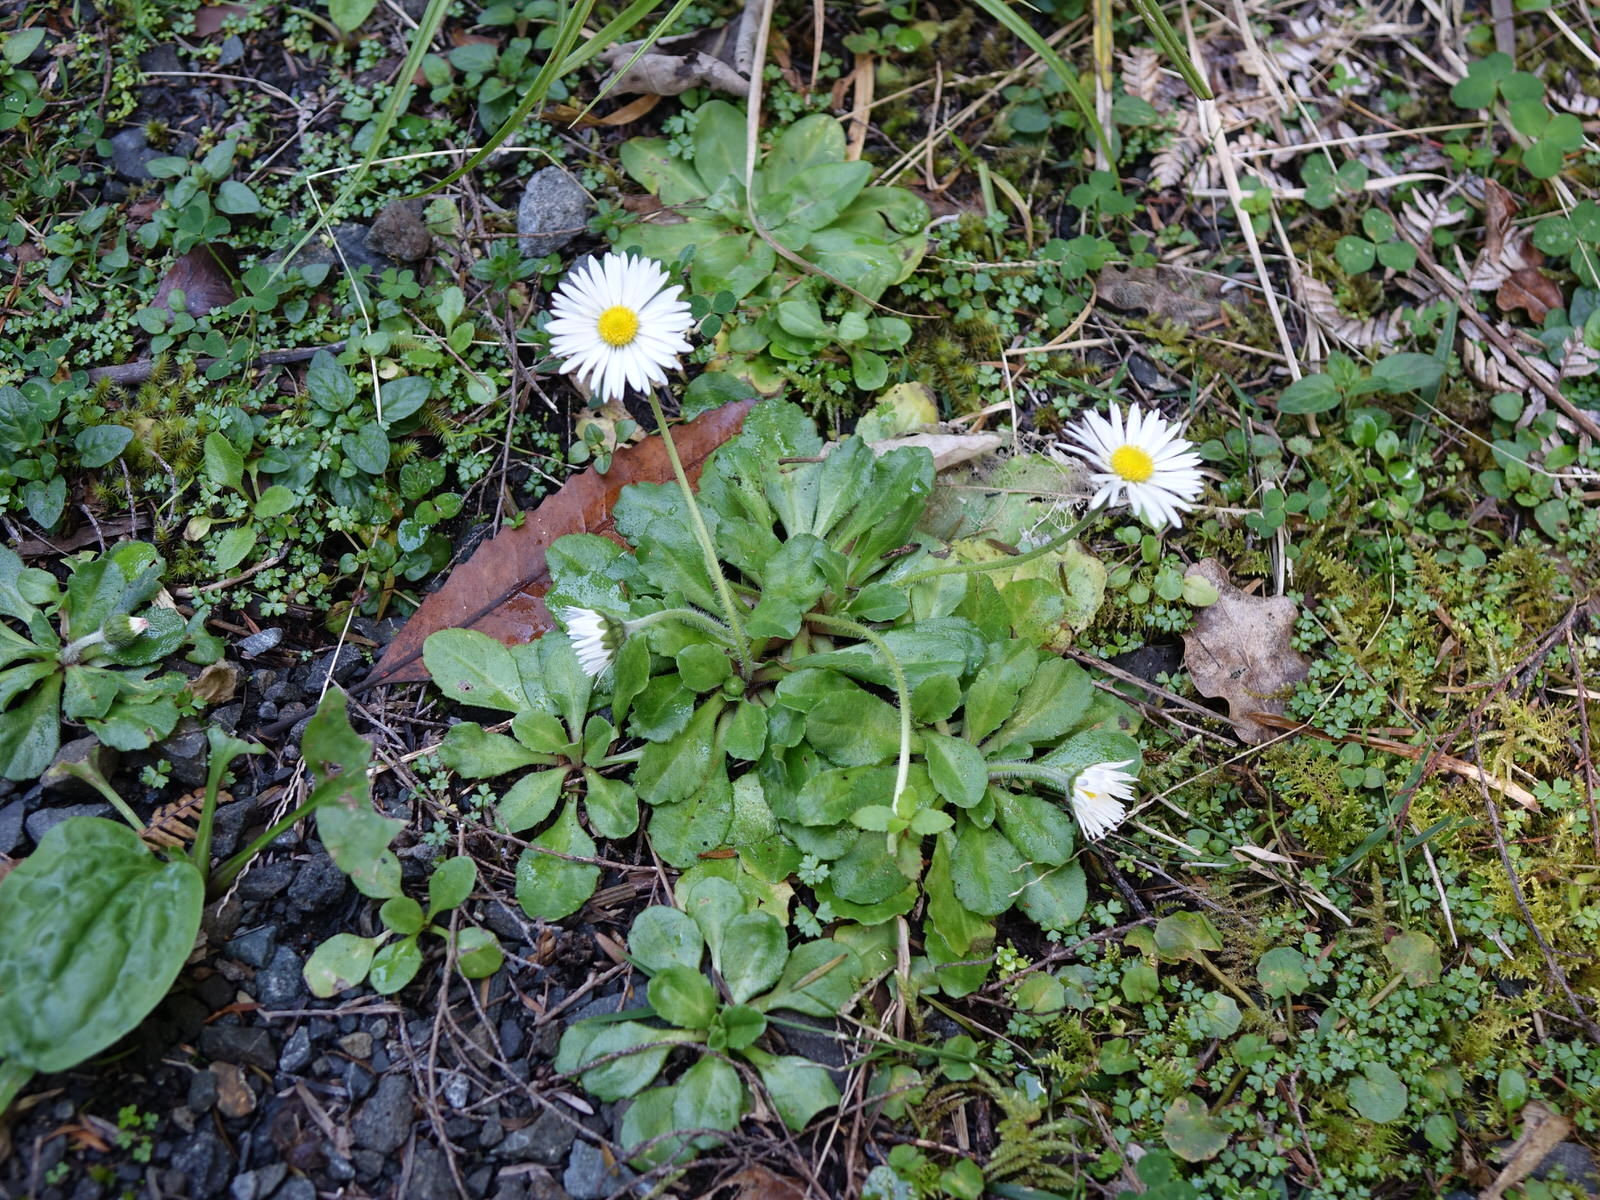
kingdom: Plantae
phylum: Tracheophyta
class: Magnoliopsida
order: Asterales
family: Asteraceae
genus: Bellis
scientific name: Bellis perennis
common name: Lawndaisy
